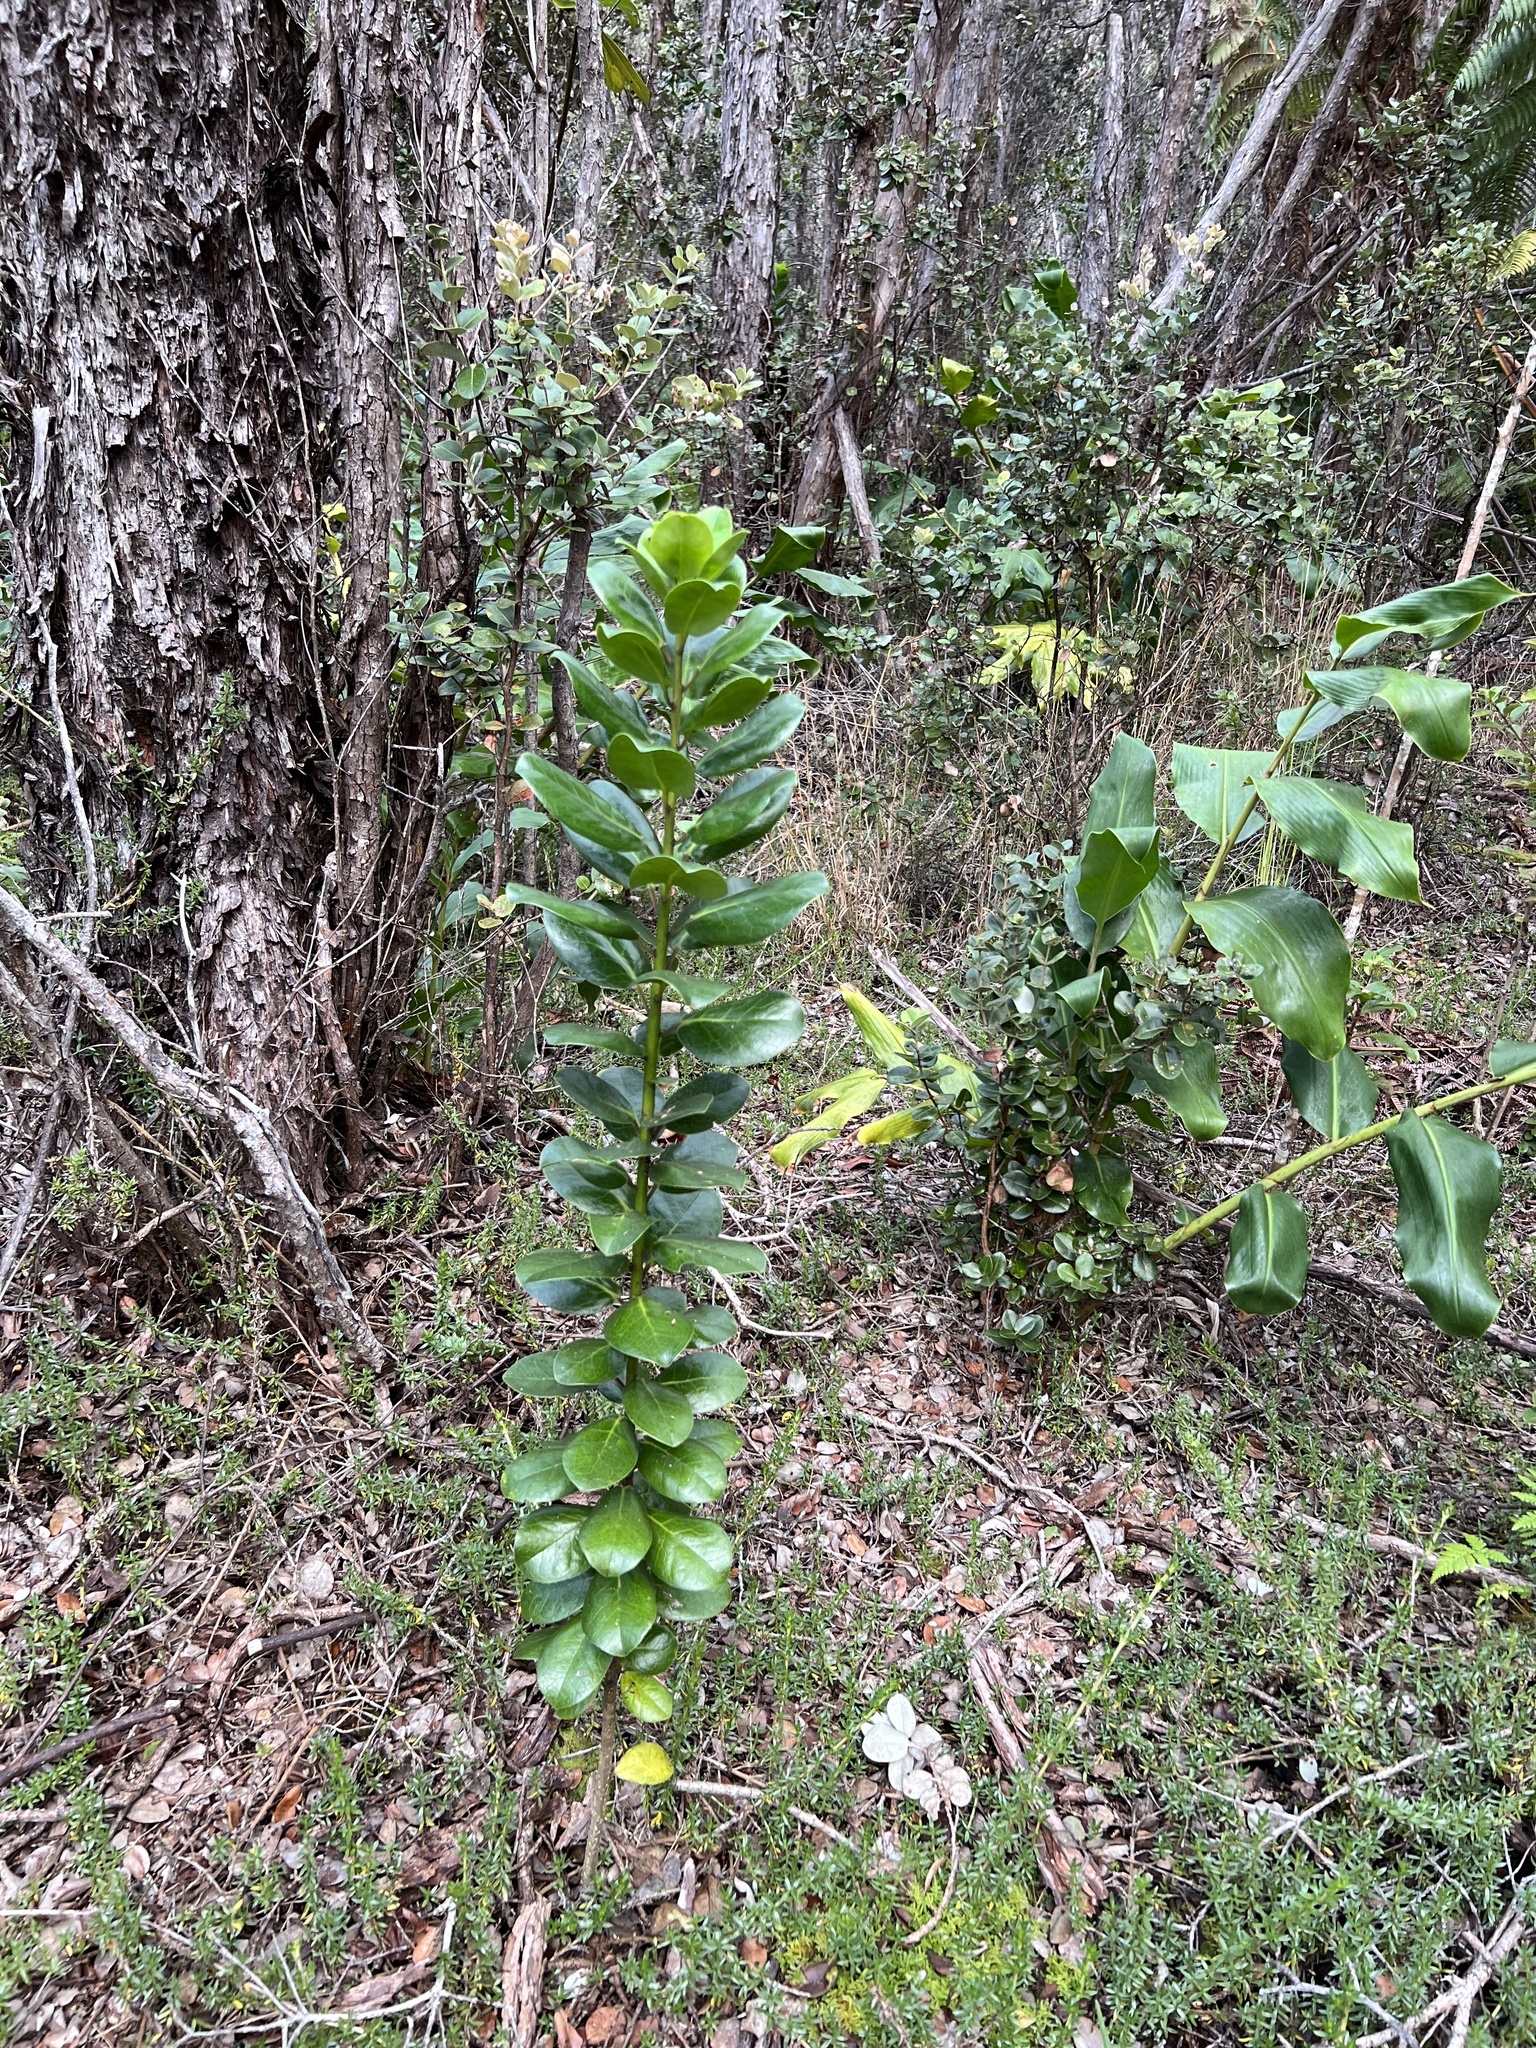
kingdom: Plantae
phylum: Tracheophyta
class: Magnoliopsida
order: Aquifoliales
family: Aquifoliaceae
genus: Ilex
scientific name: Ilex anomala
